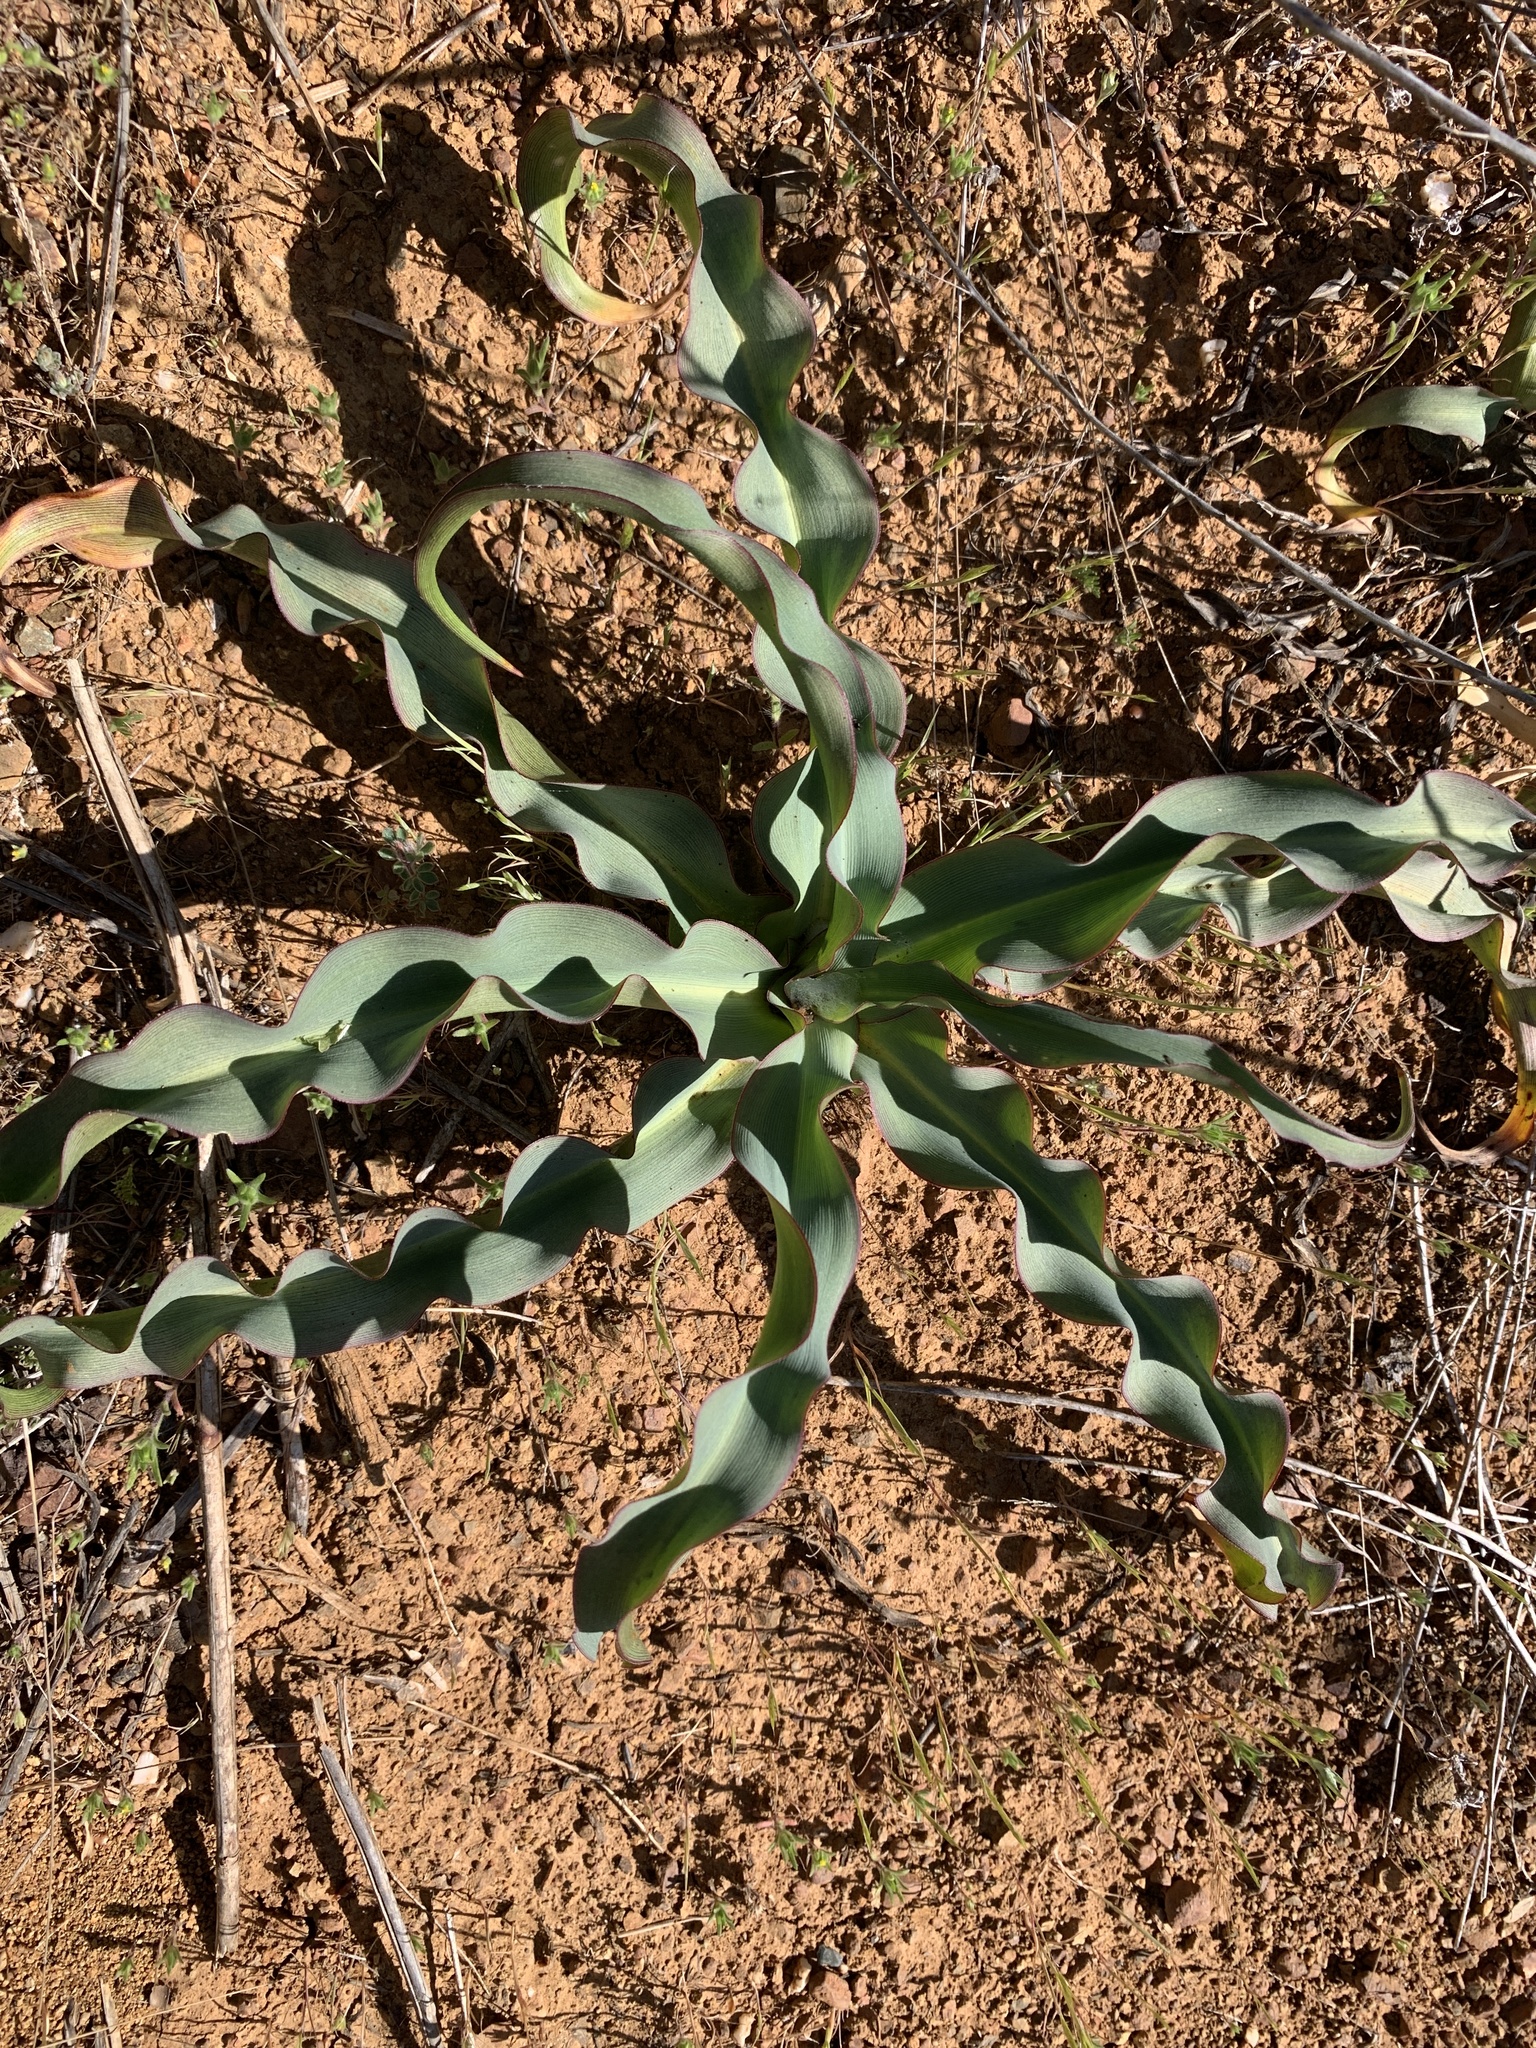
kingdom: Plantae
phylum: Tracheophyta
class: Liliopsida
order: Asparagales
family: Asparagaceae
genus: Chlorogalum
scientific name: Chlorogalum pomeridianum
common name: Amole
